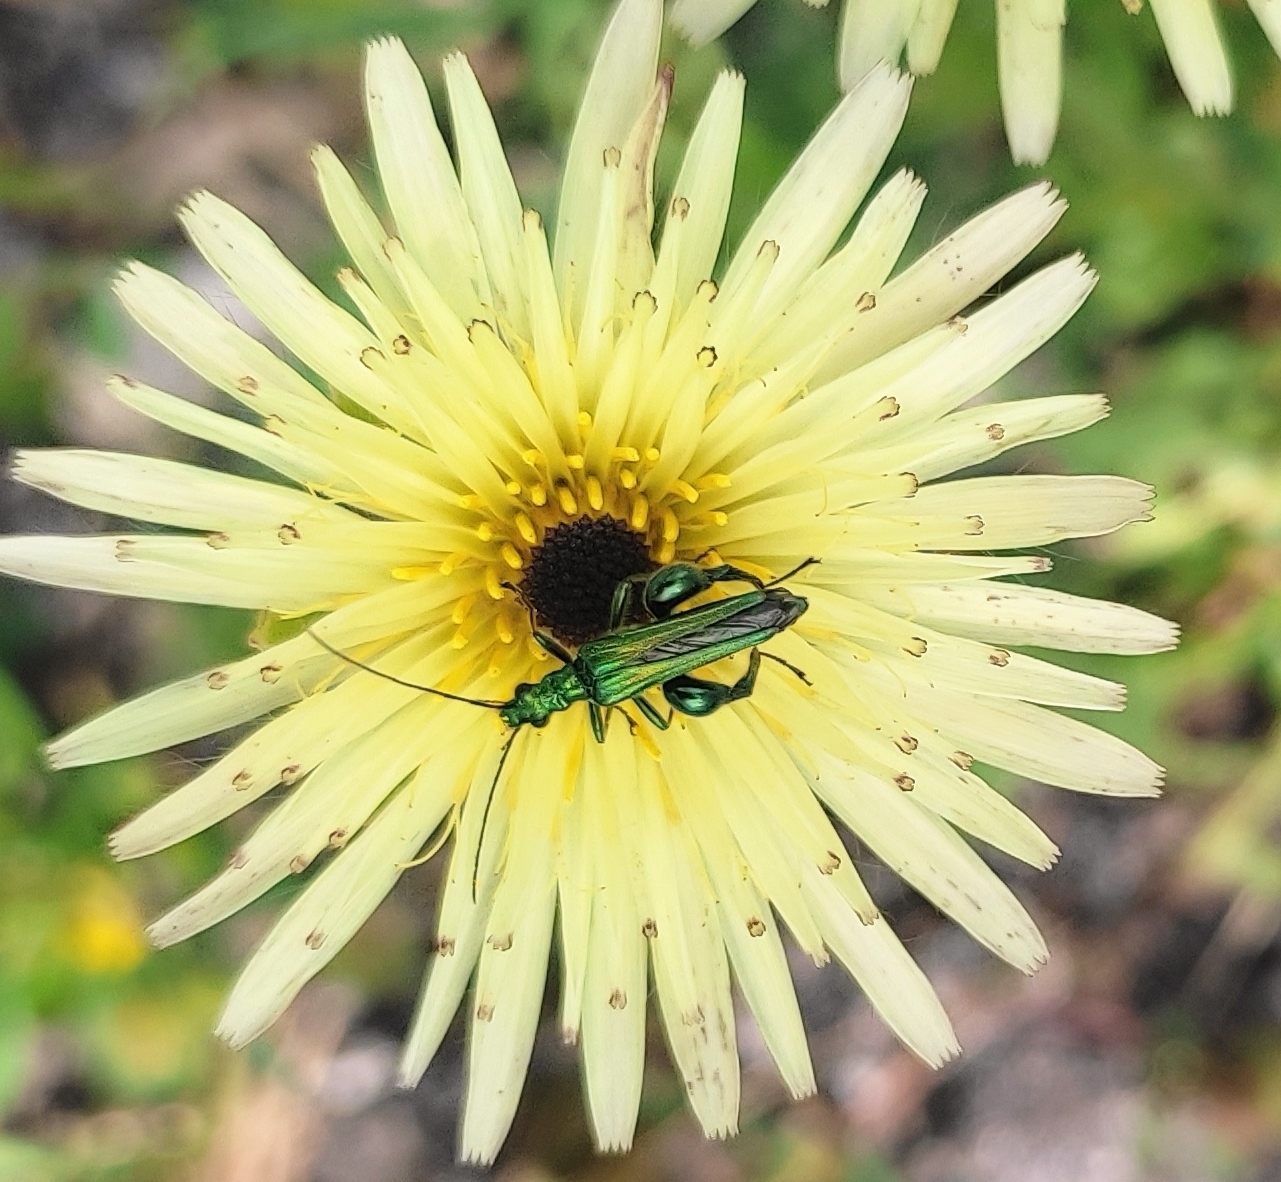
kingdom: Animalia
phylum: Arthropoda
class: Insecta
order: Coleoptera
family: Oedemeridae
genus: Oedemera
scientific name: Oedemera nobilis
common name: Swollen-thighed beetle
